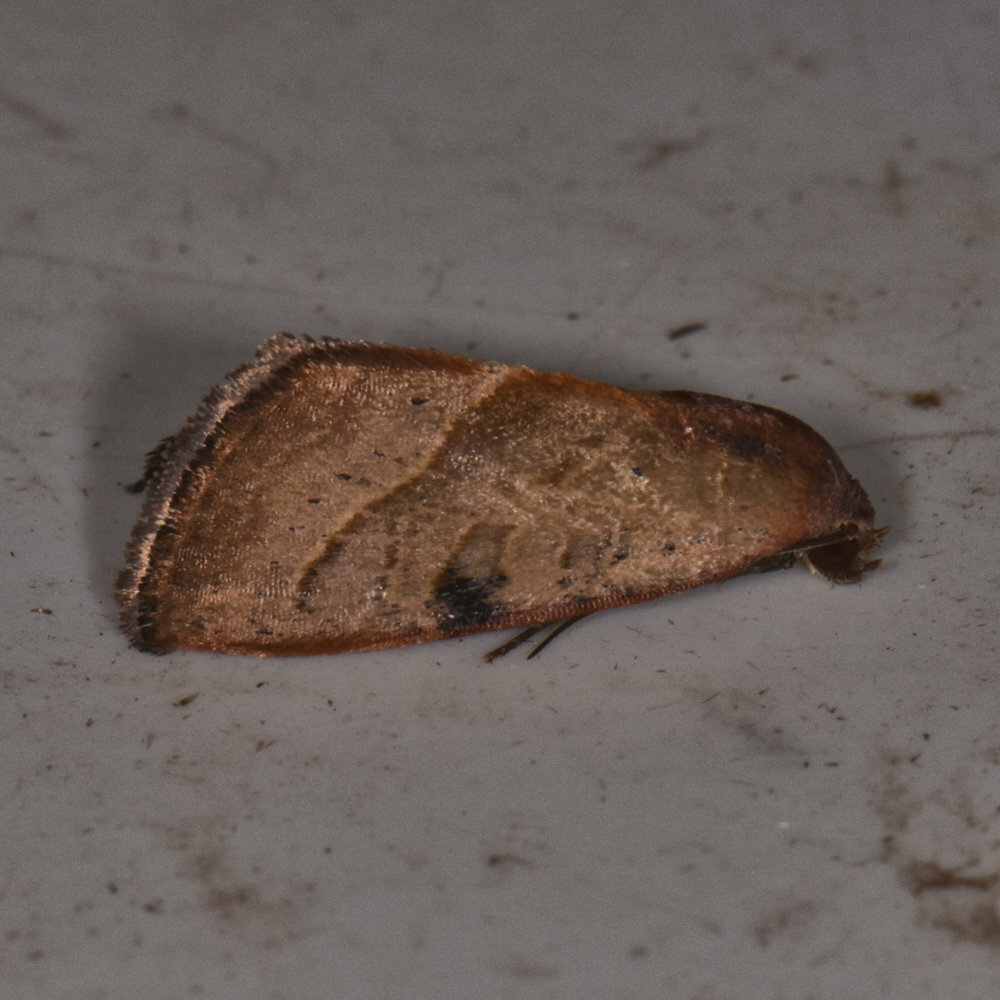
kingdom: Animalia
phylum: Arthropoda
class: Insecta
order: Lepidoptera
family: Noctuidae
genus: Galgula
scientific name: Galgula partita
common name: Wedgeling
